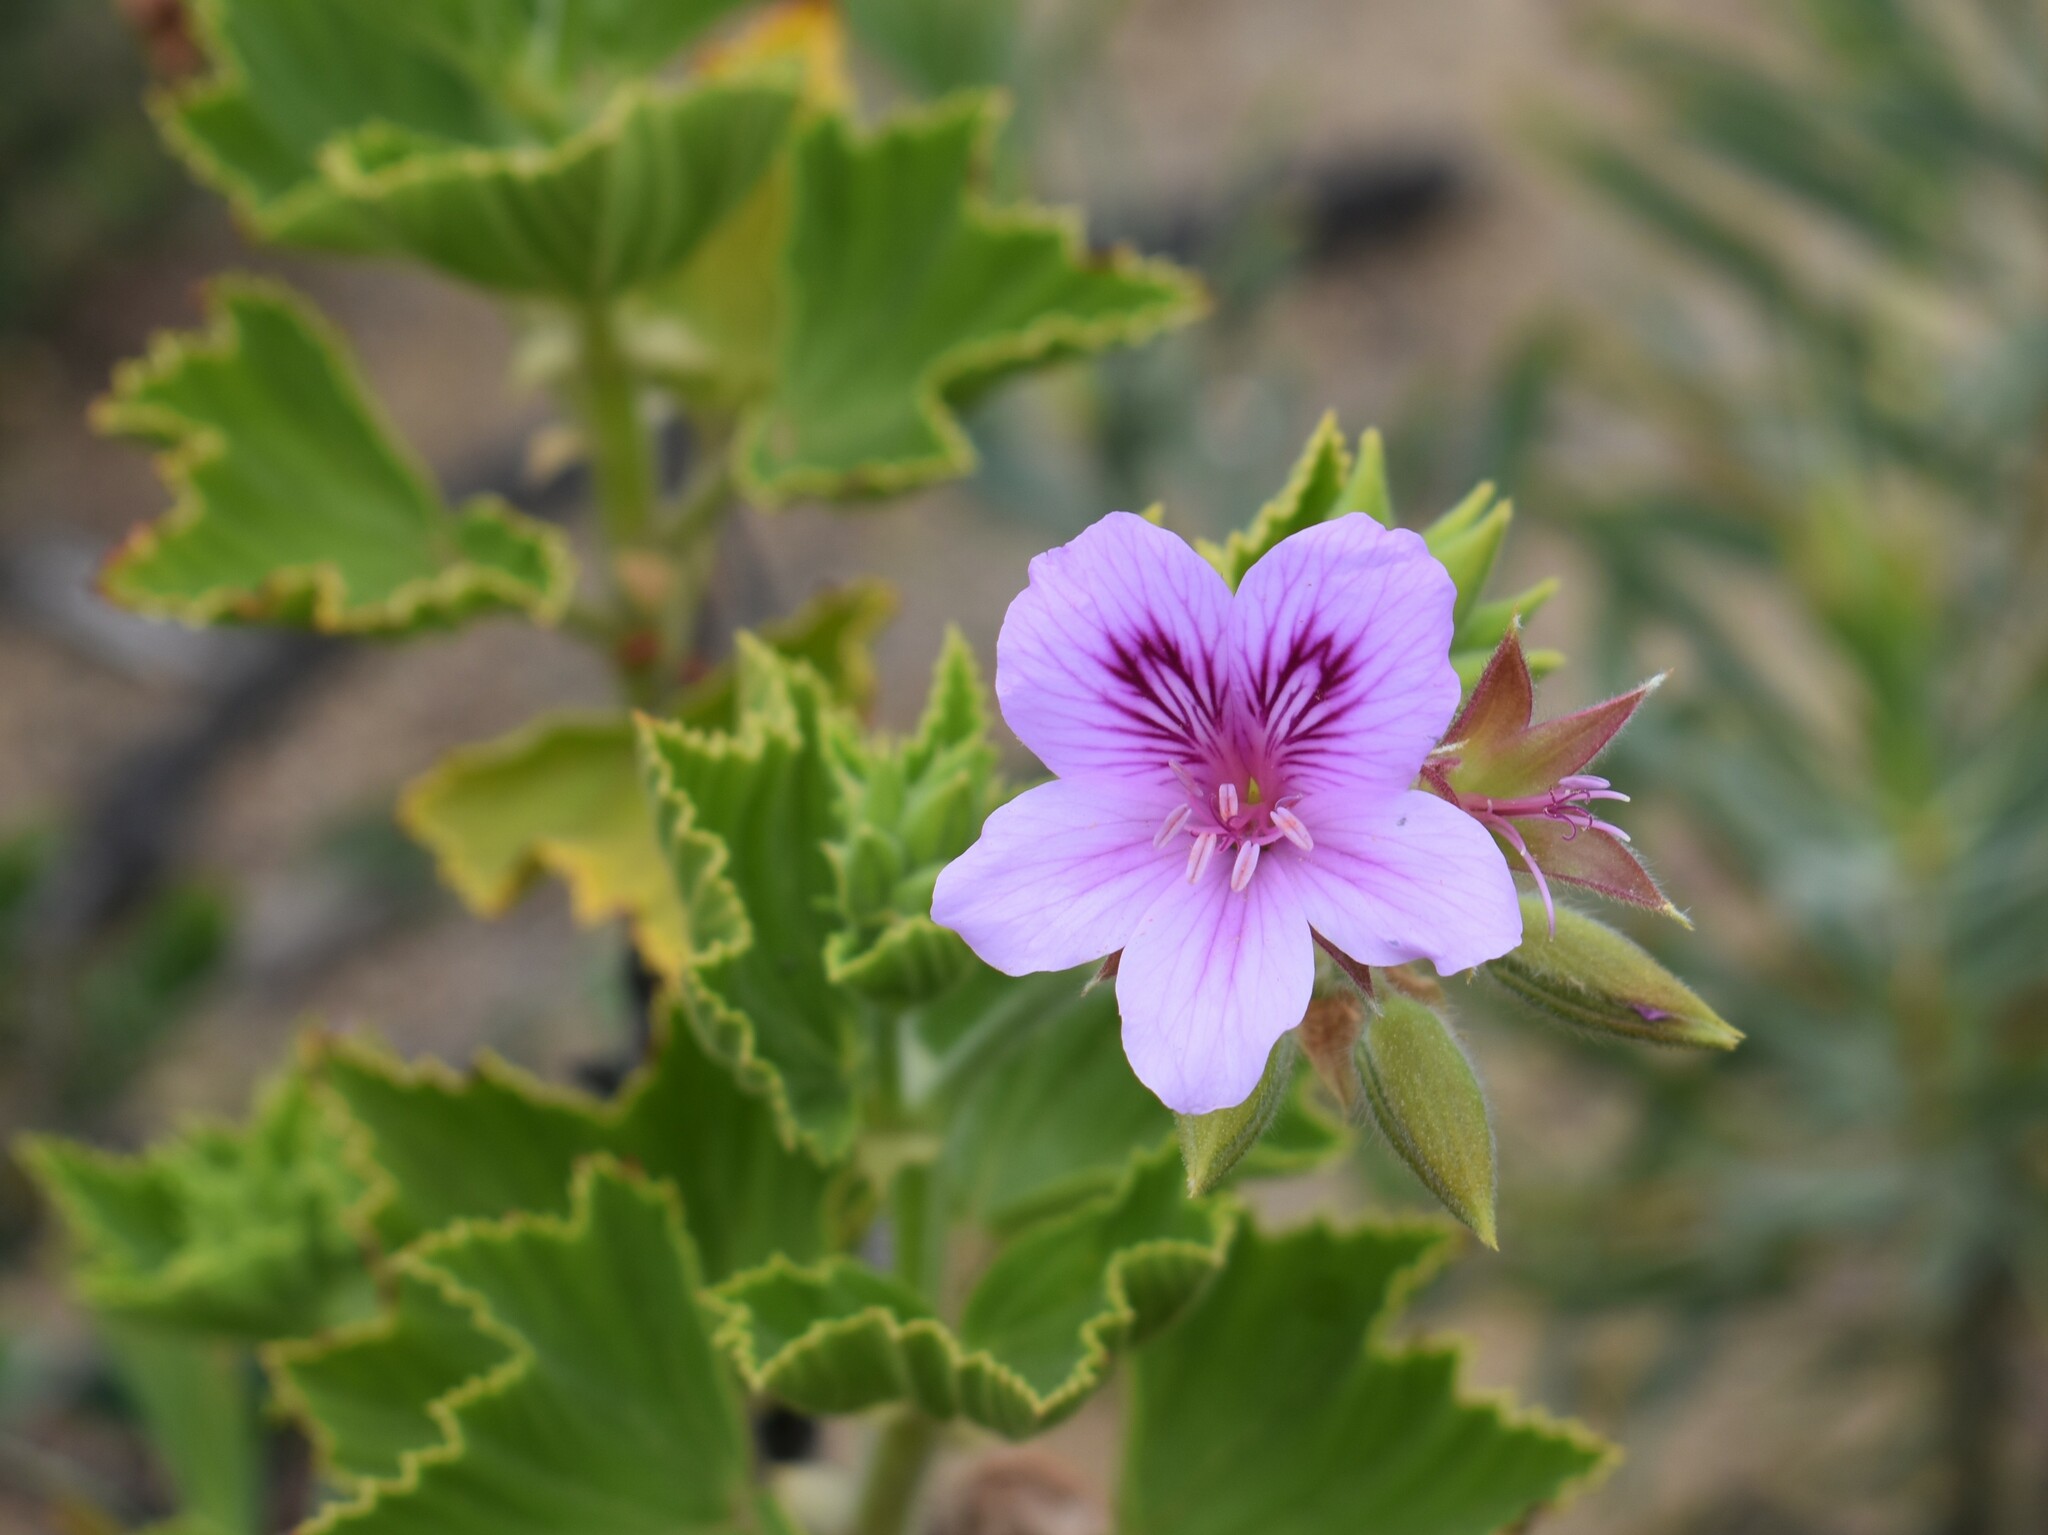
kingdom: Plantae
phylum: Tracheophyta
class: Magnoliopsida
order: Geraniales
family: Geraniaceae
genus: Pelargonium
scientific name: Pelargonium cucullatum
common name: Tree pelargonium
